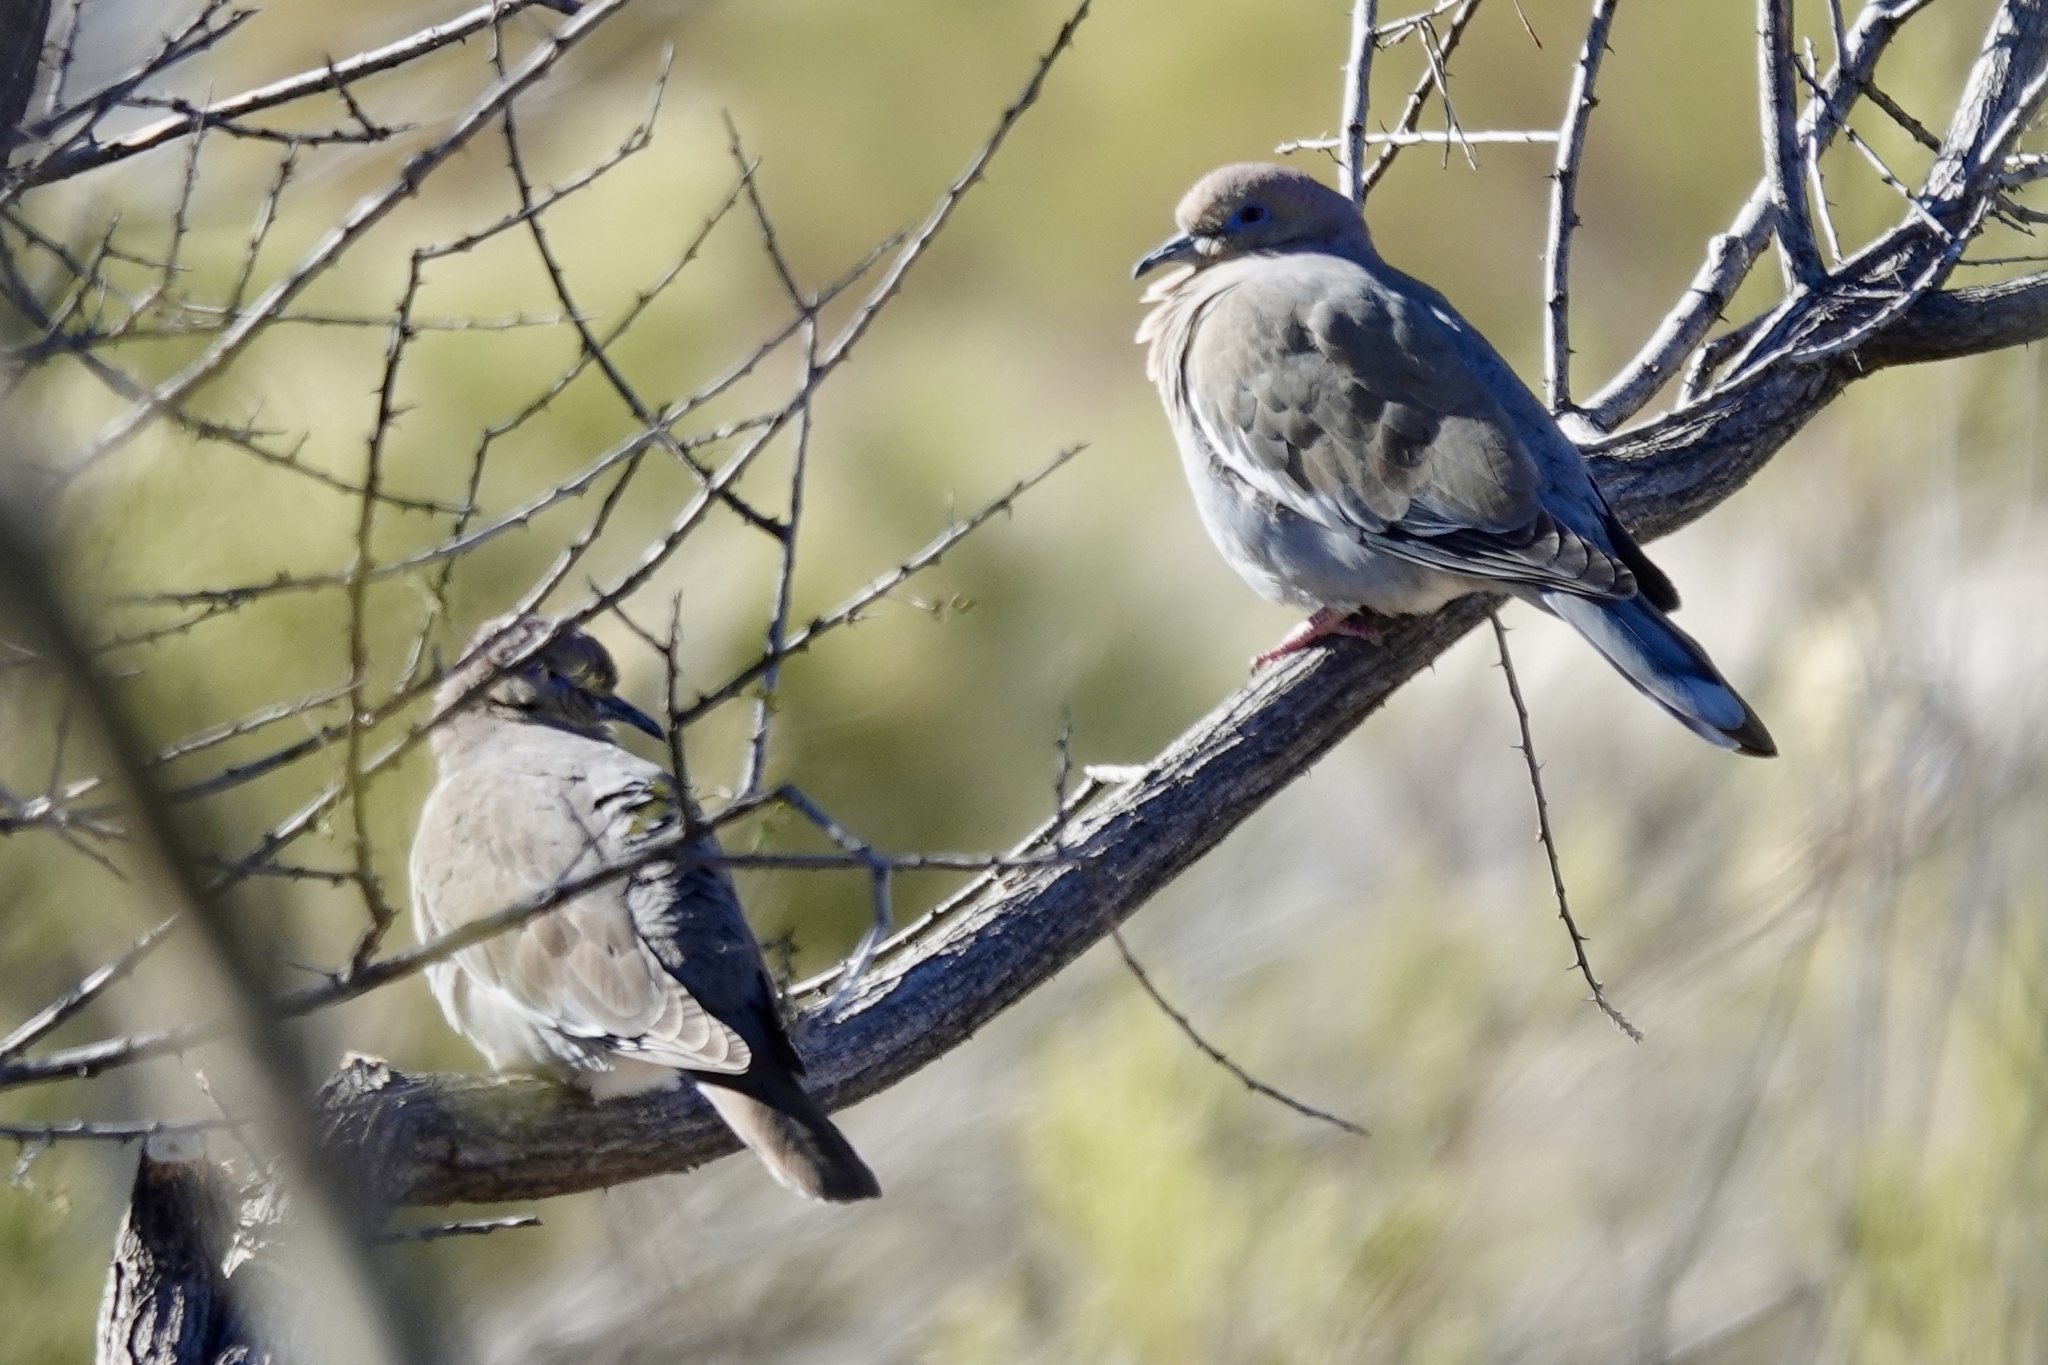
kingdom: Animalia
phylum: Chordata
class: Aves
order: Columbiformes
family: Columbidae
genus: Zenaida
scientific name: Zenaida asiatica
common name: White-winged dove
